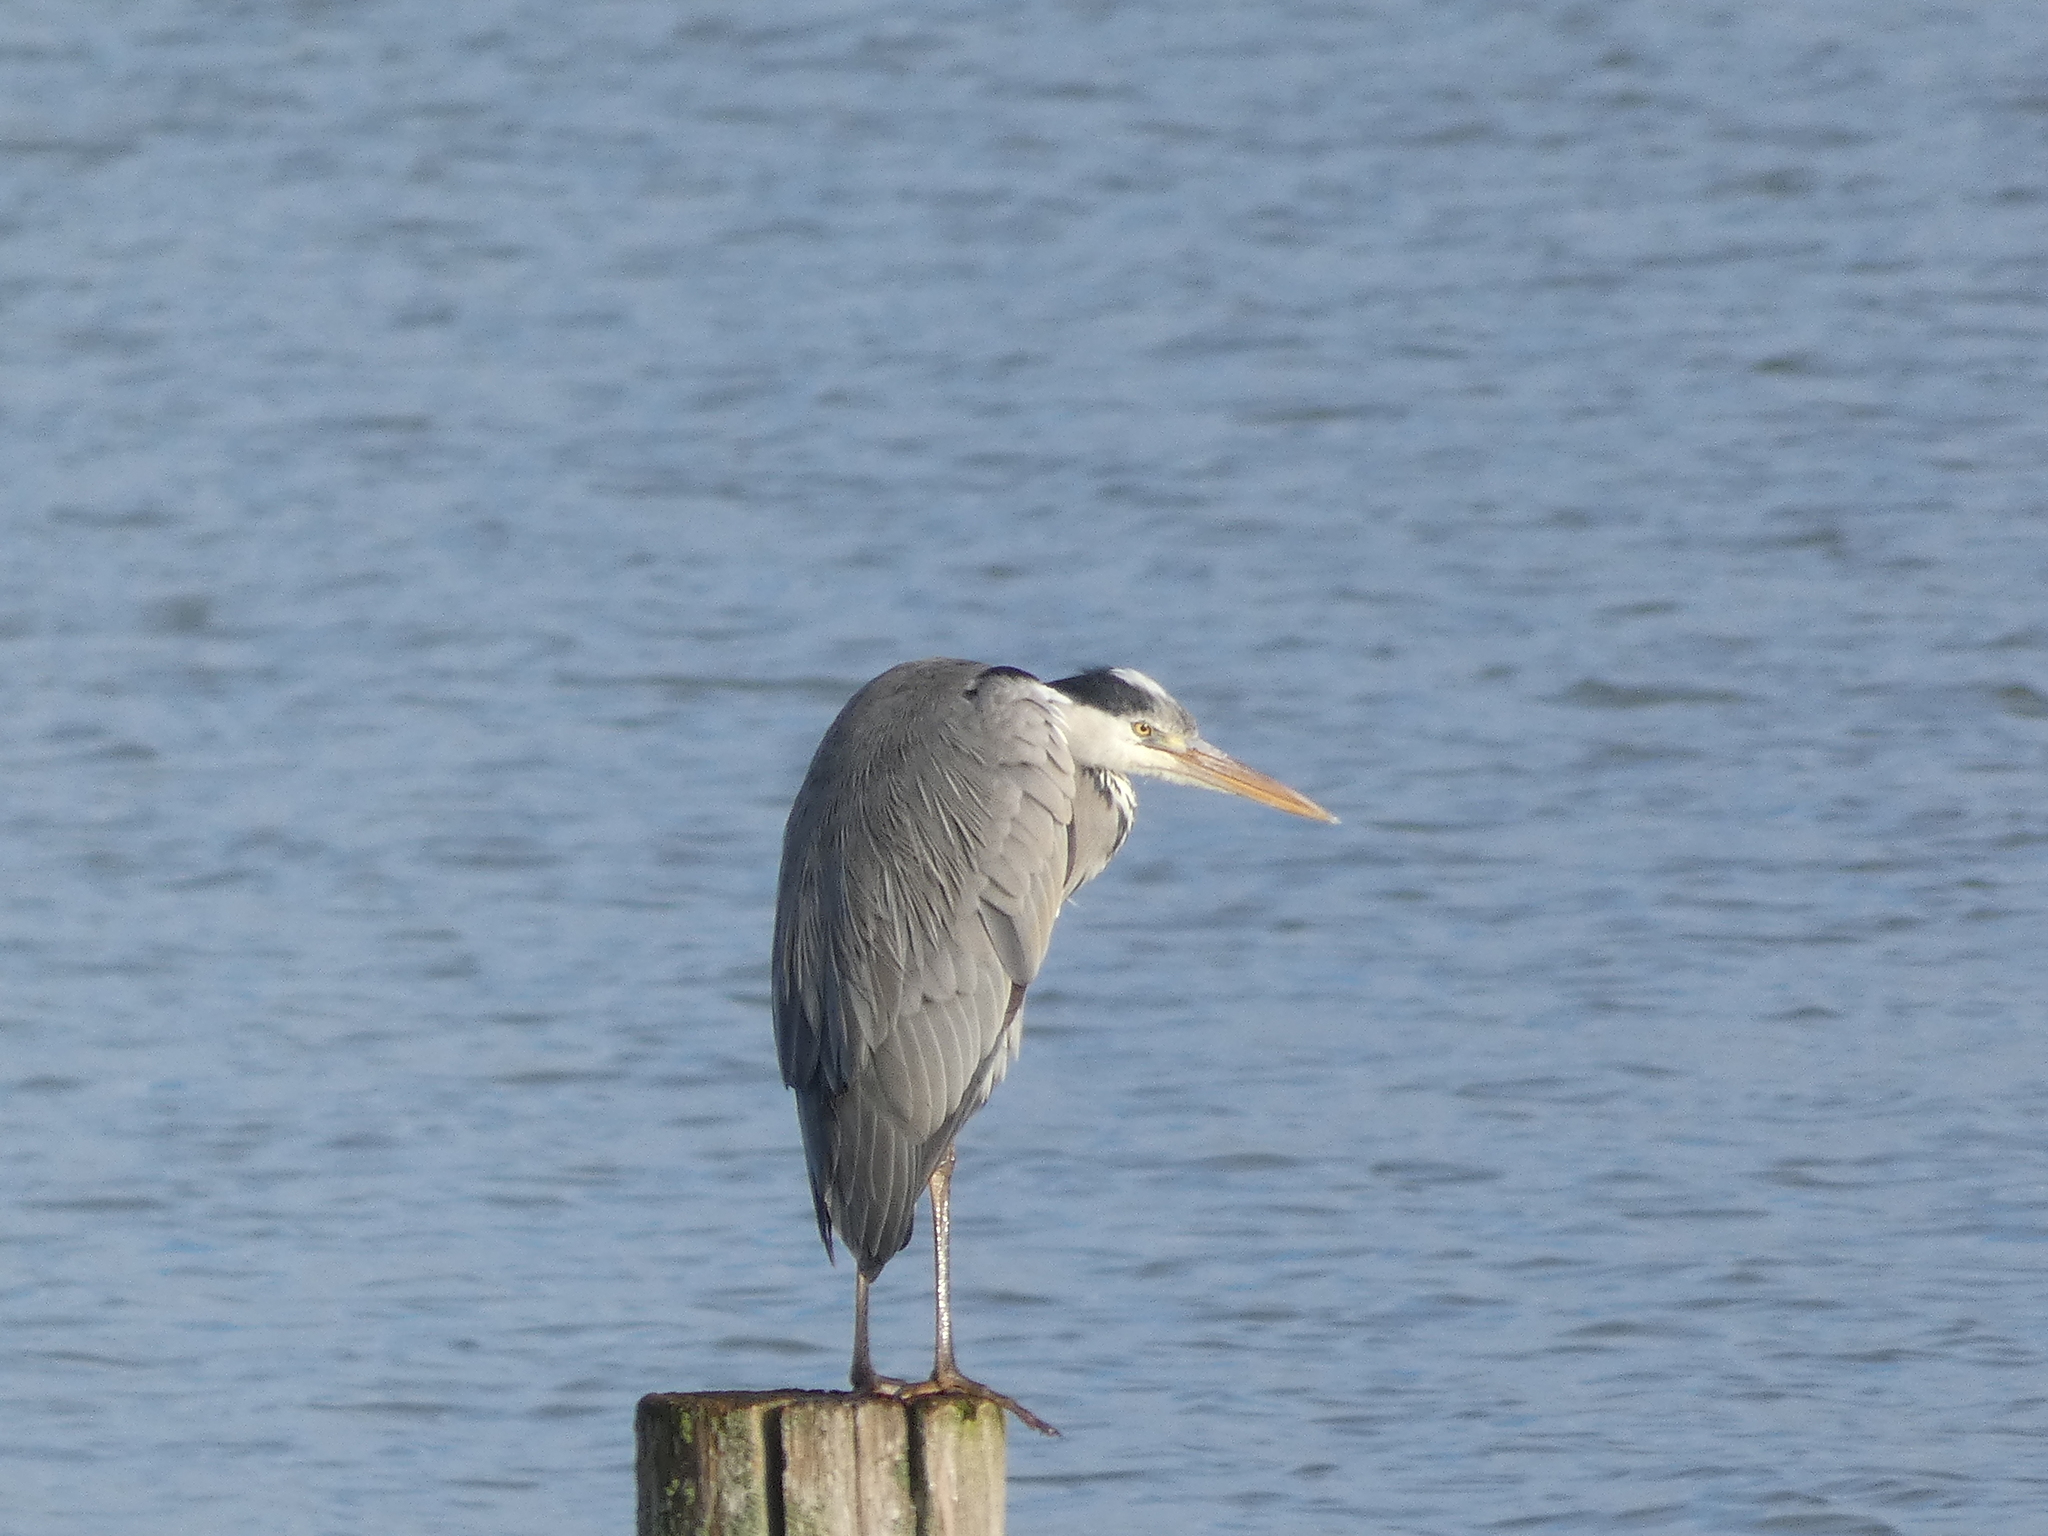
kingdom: Animalia
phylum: Chordata
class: Aves
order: Pelecaniformes
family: Ardeidae
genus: Ardea
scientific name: Ardea cinerea
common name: Grey heron
